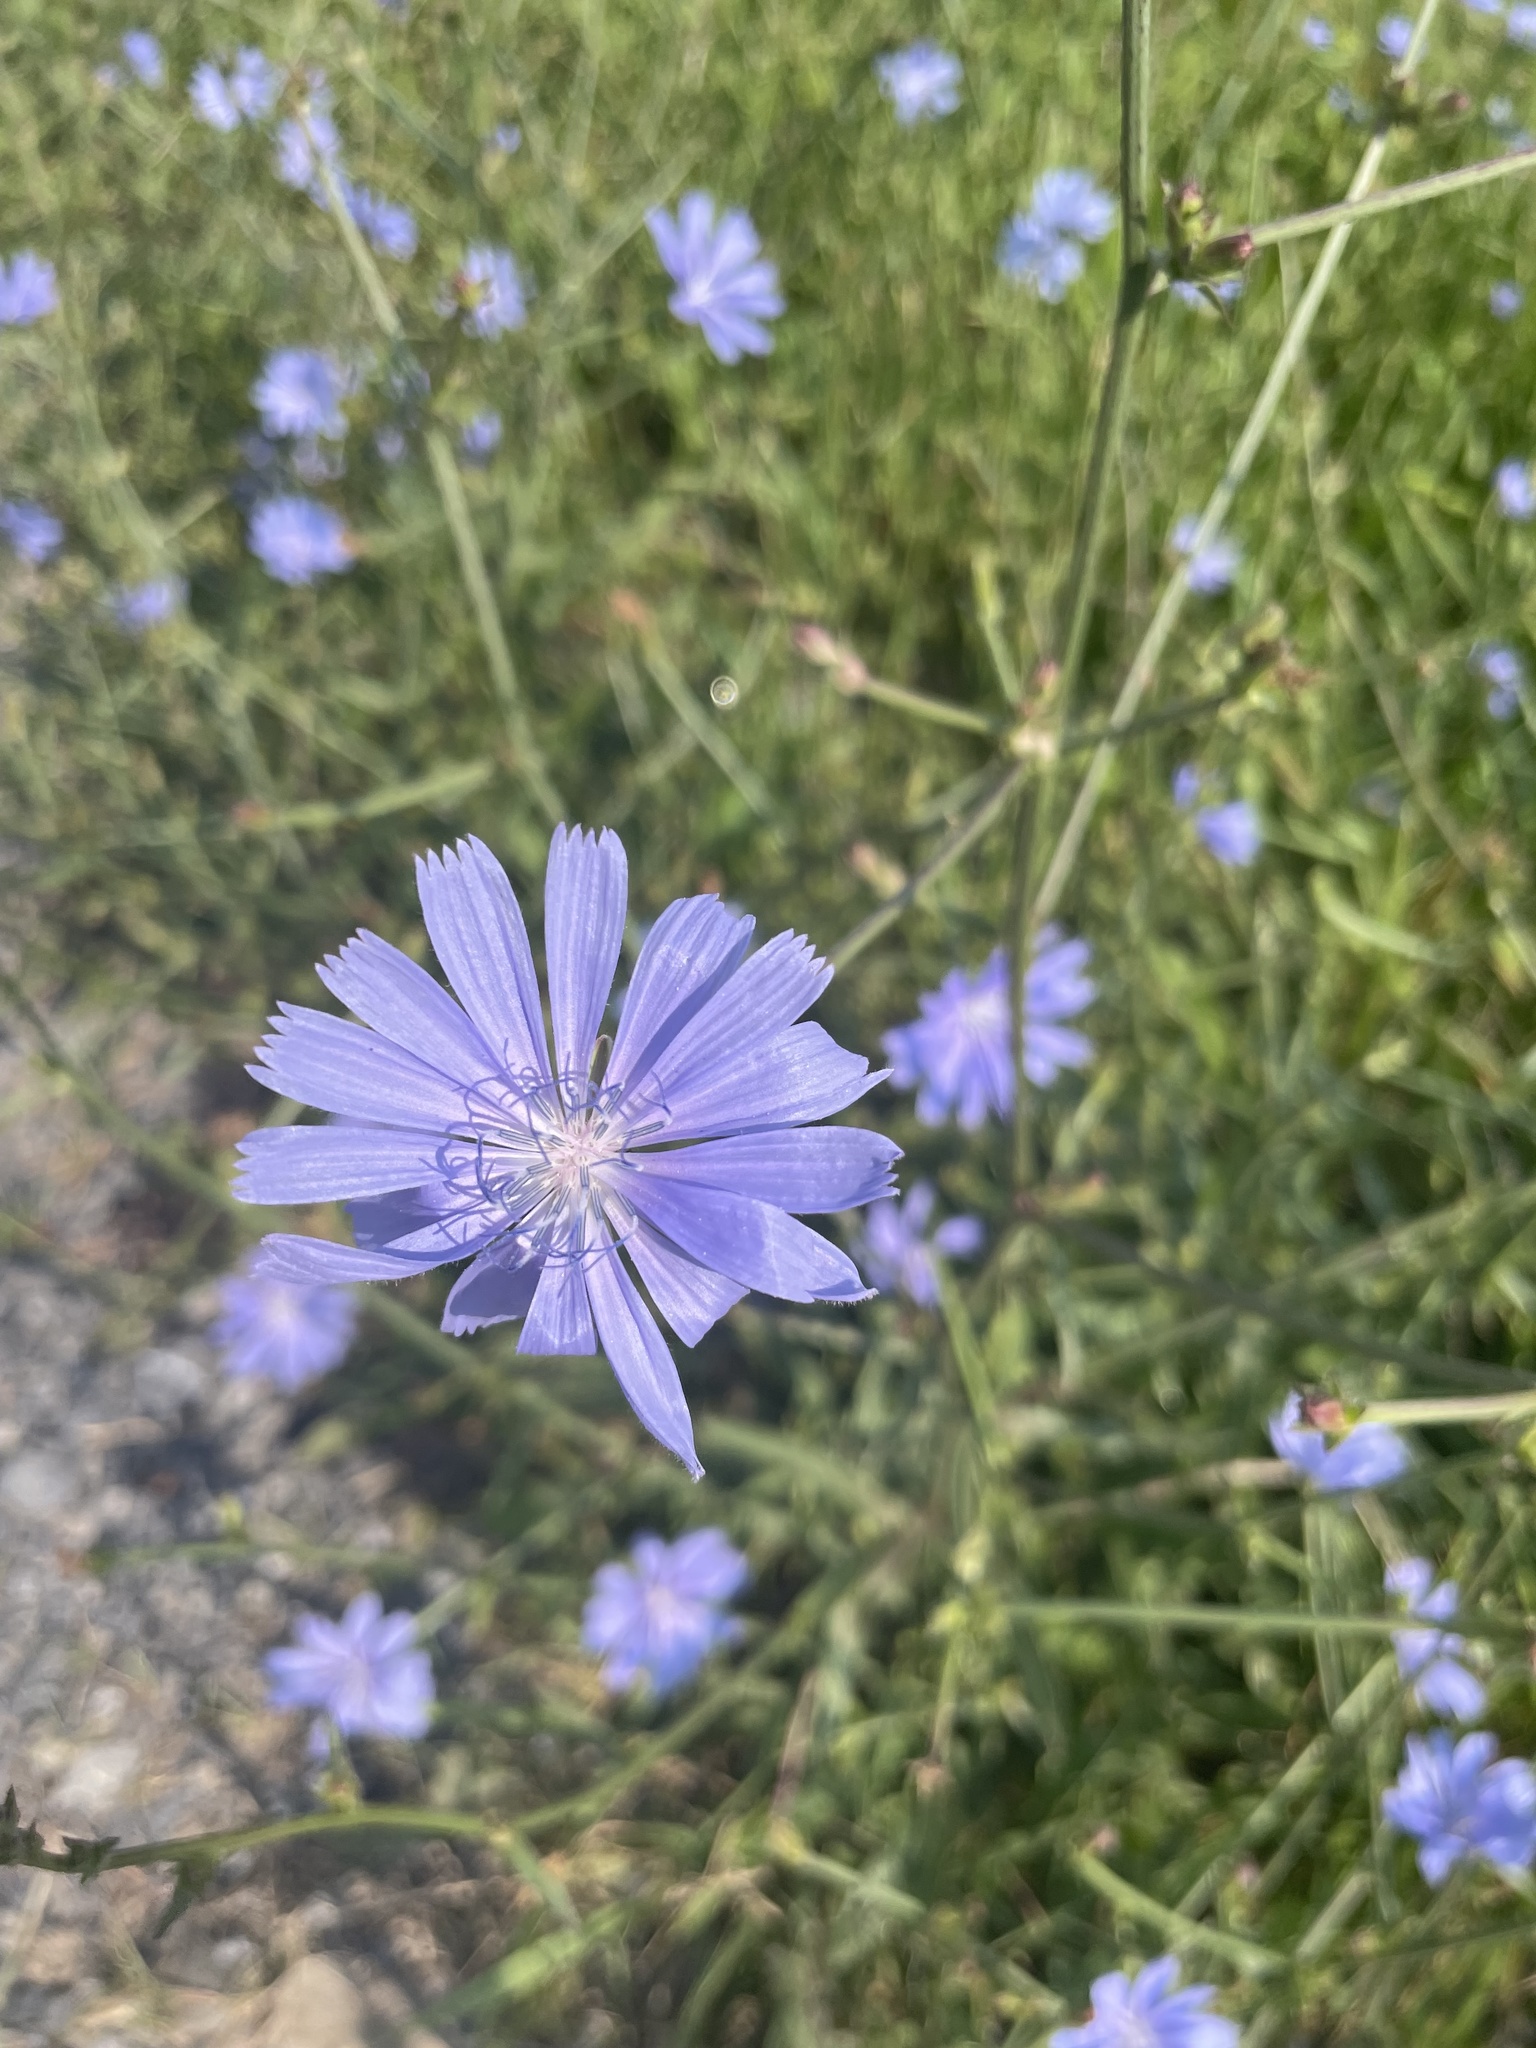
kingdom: Plantae
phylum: Tracheophyta
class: Magnoliopsida
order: Asterales
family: Asteraceae
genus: Cichorium
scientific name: Cichorium intybus
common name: Chicory
